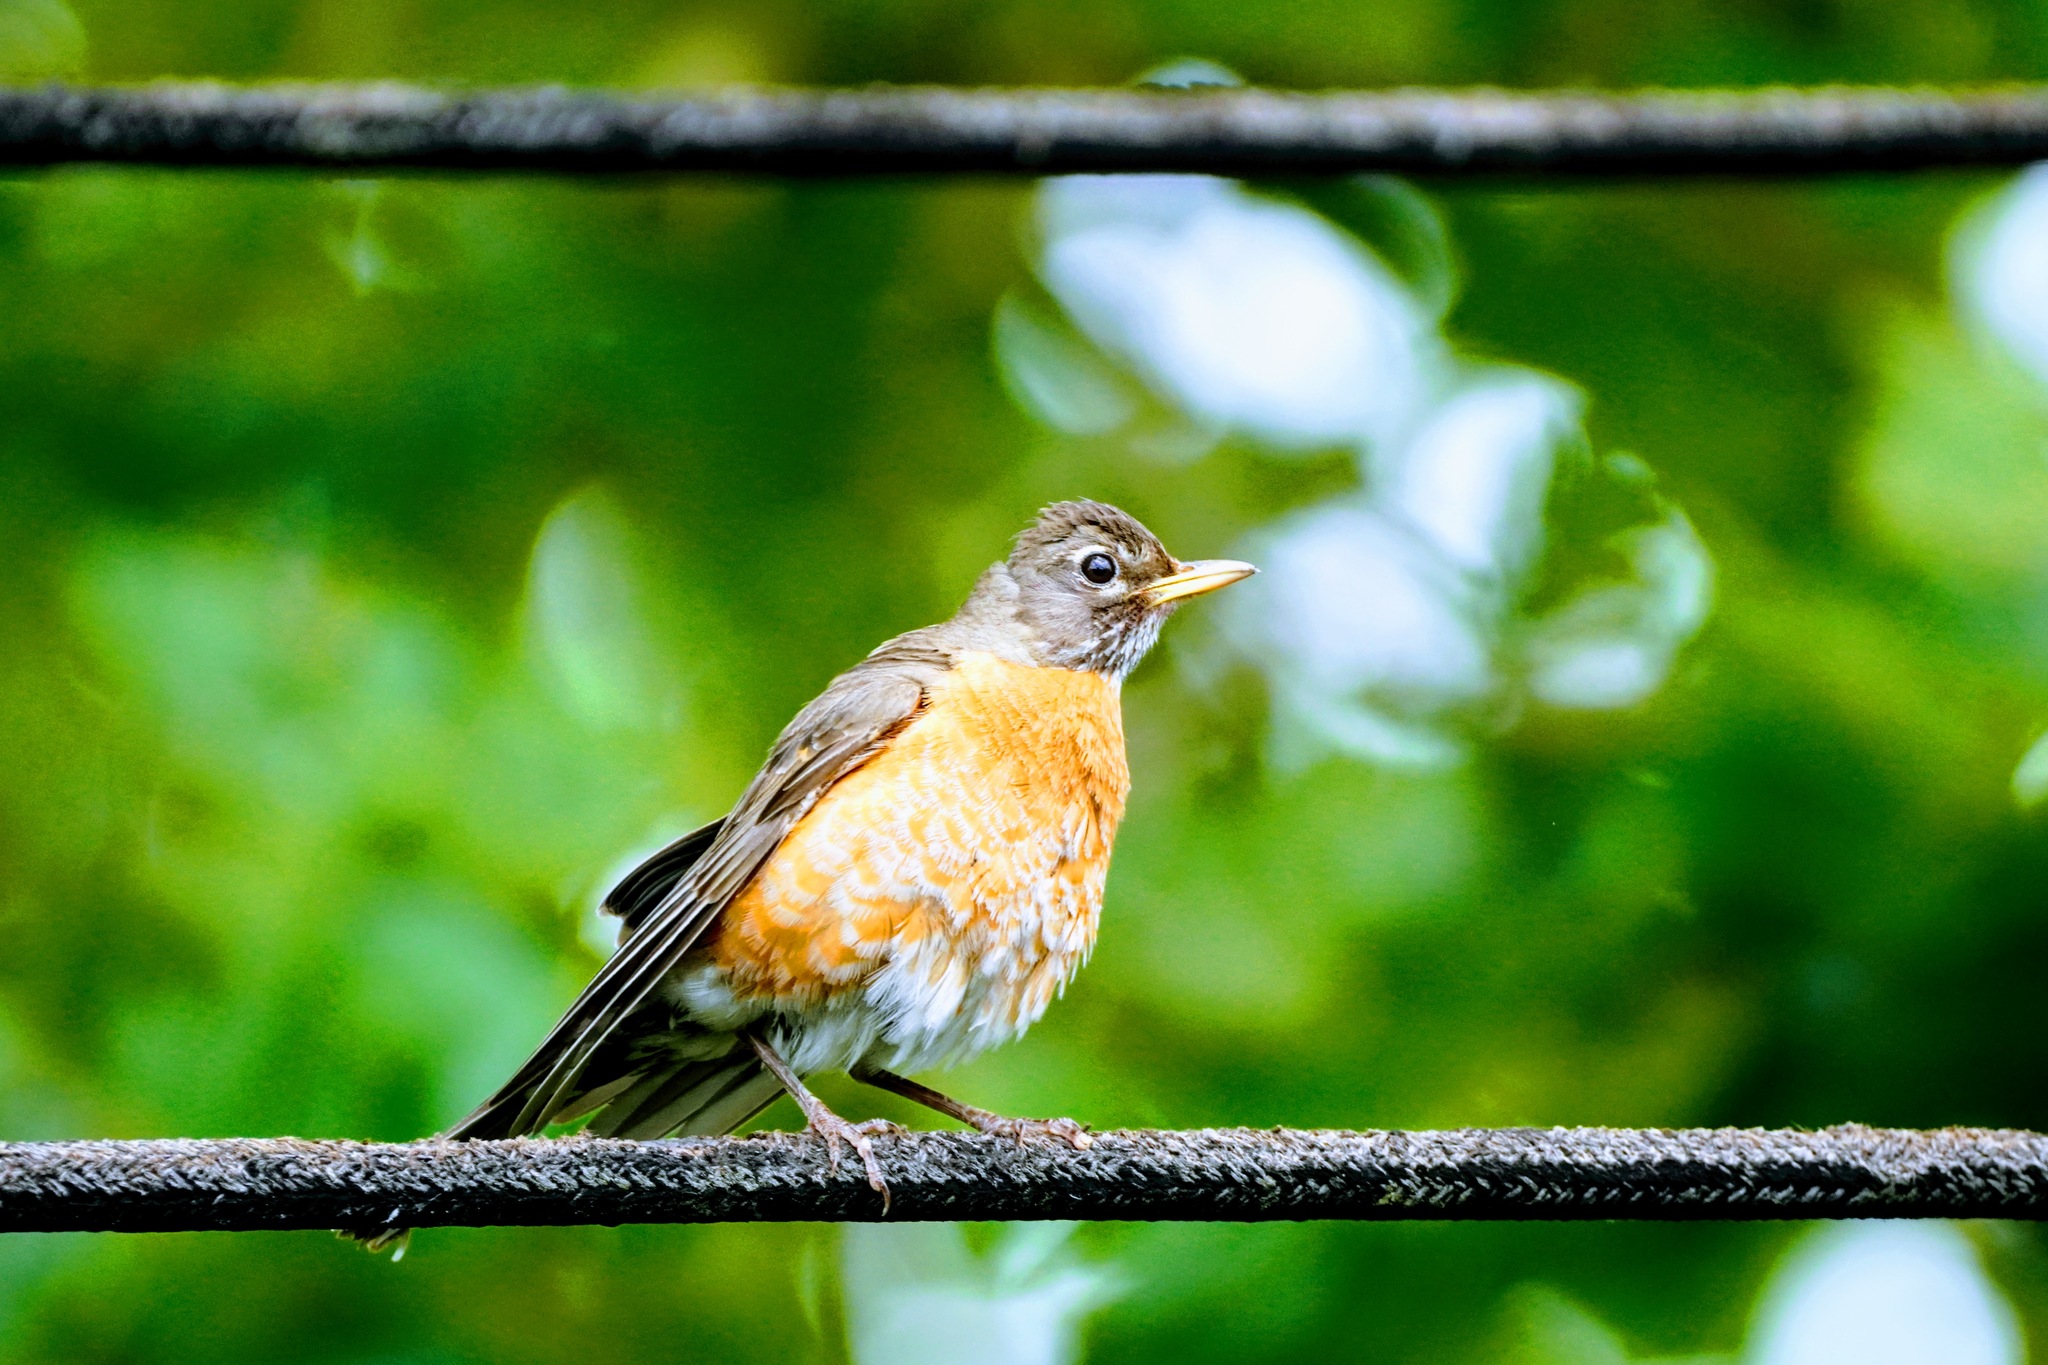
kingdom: Animalia
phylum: Chordata
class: Aves
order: Passeriformes
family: Turdidae
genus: Turdus
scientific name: Turdus migratorius
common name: American robin
